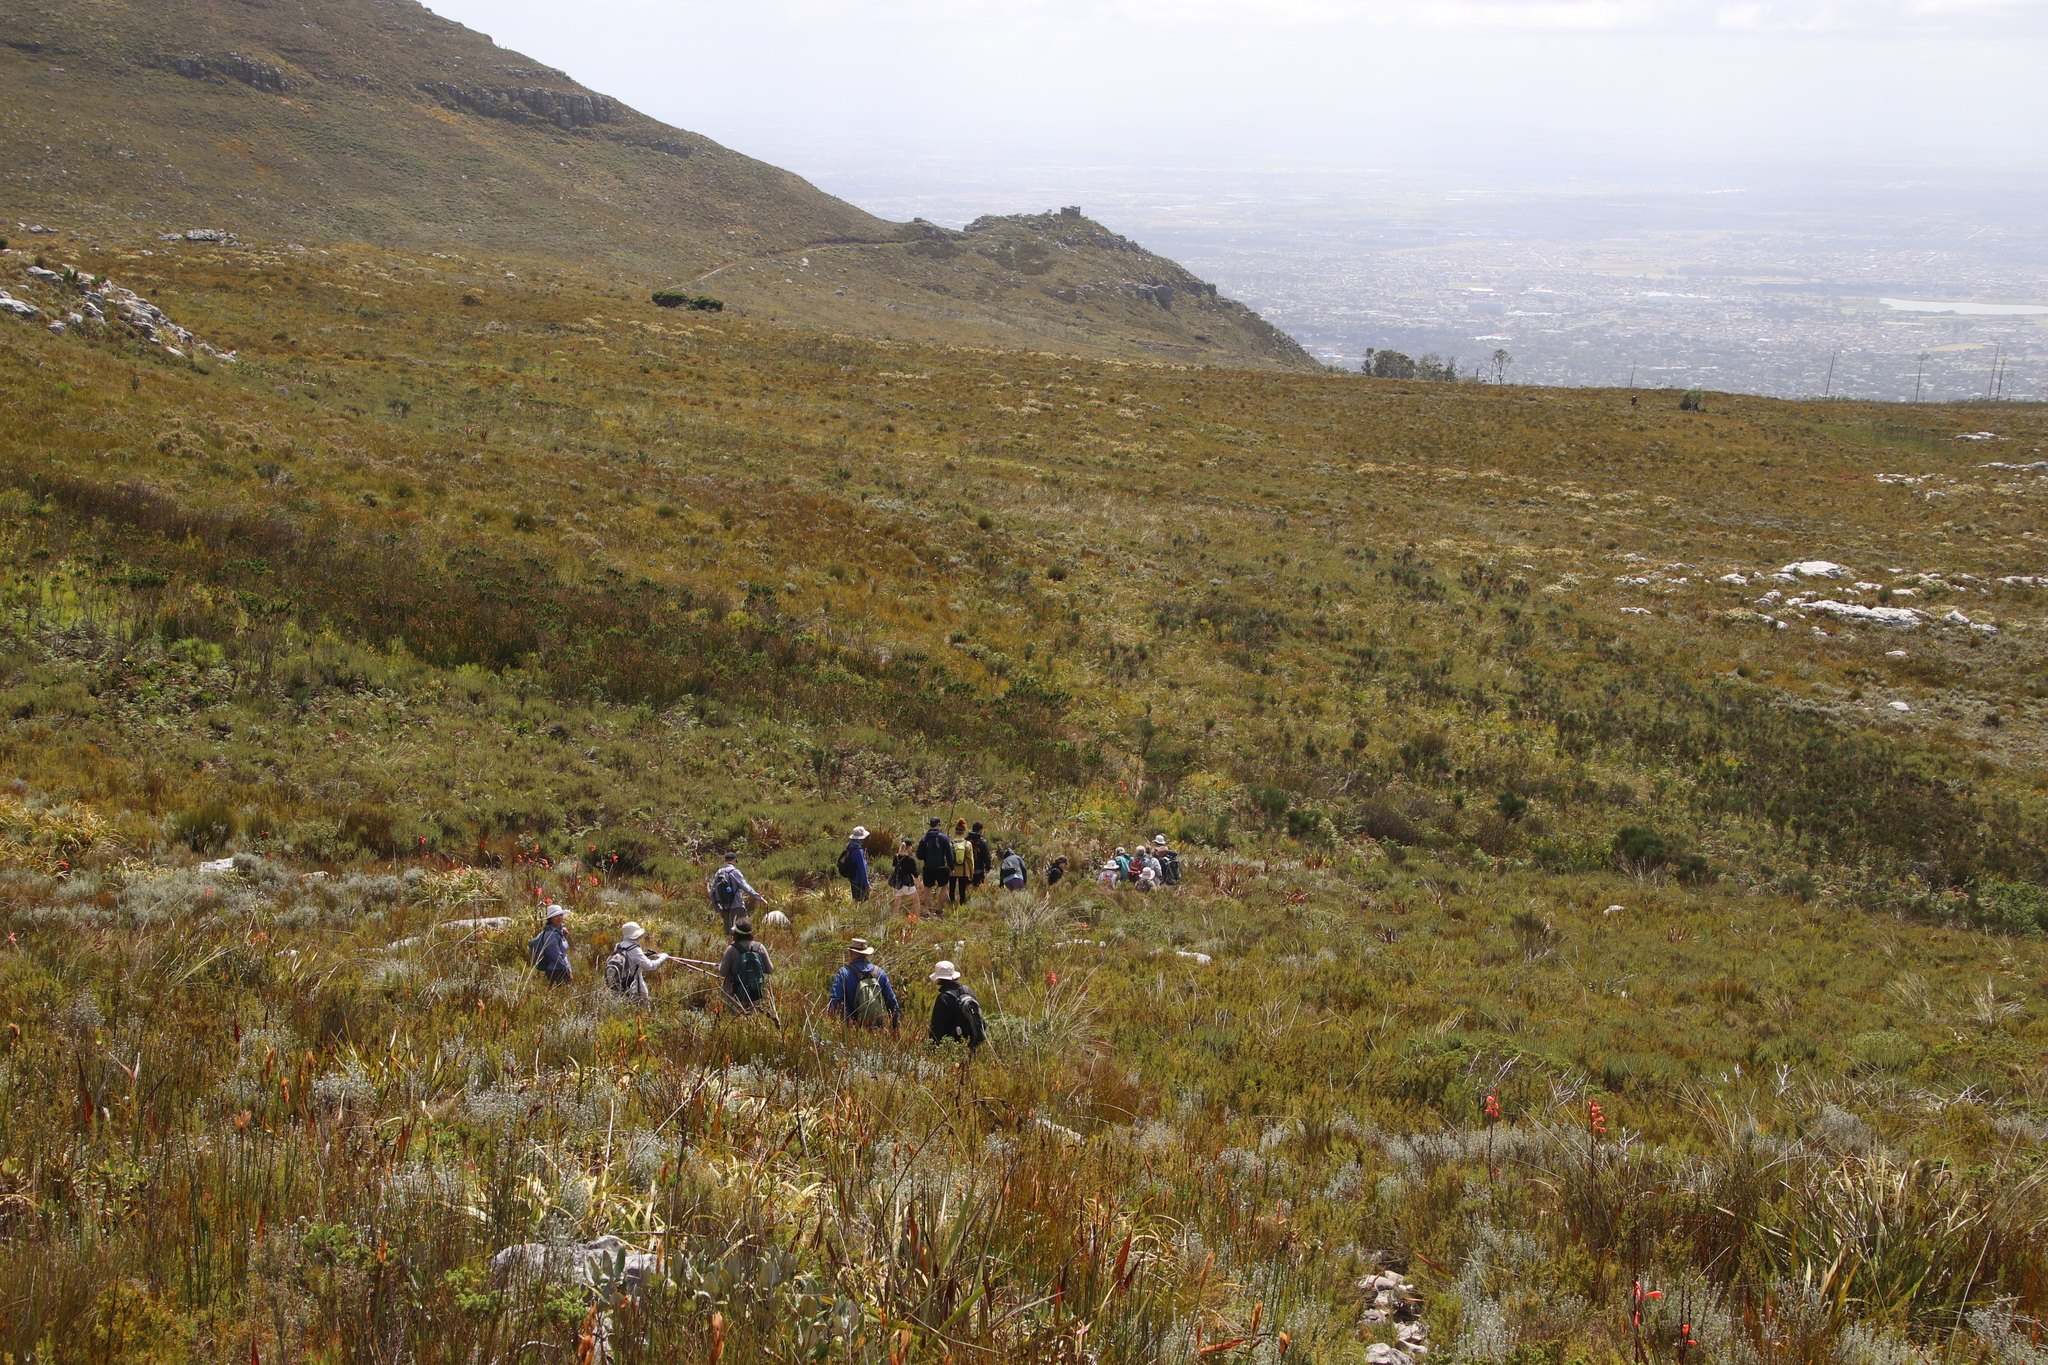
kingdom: Plantae
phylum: Tracheophyta
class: Magnoliopsida
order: Fabales
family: Fabaceae
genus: Psoralea
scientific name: Psoralea aphylla
